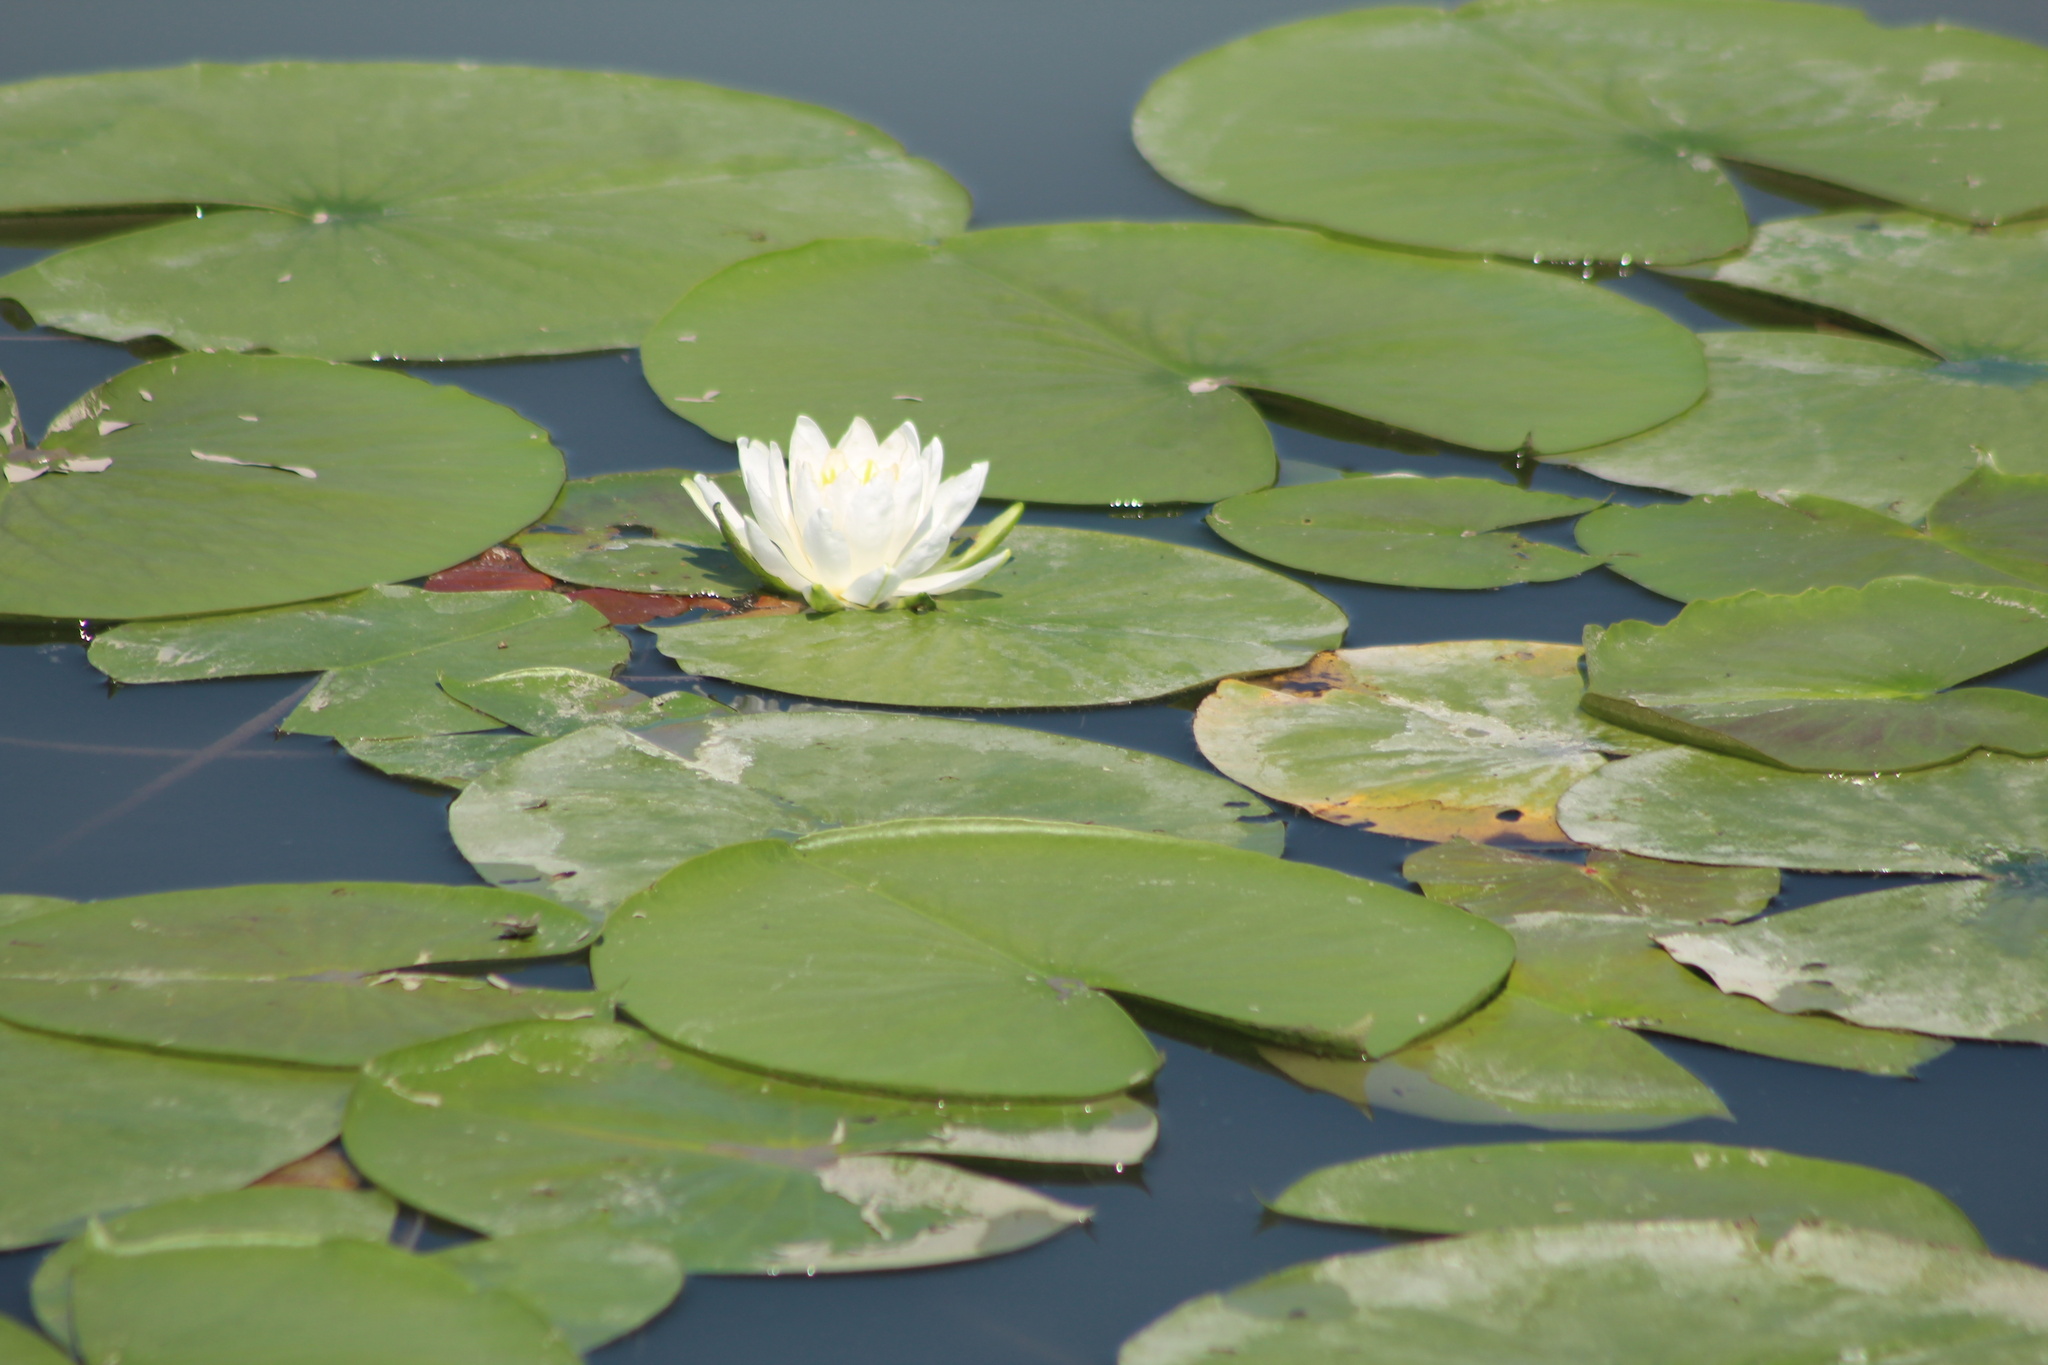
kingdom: Plantae
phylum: Tracheophyta
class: Magnoliopsida
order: Nymphaeales
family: Nymphaeaceae
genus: Nymphaea
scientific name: Nymphaea odorata
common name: Fragrant water-lily
